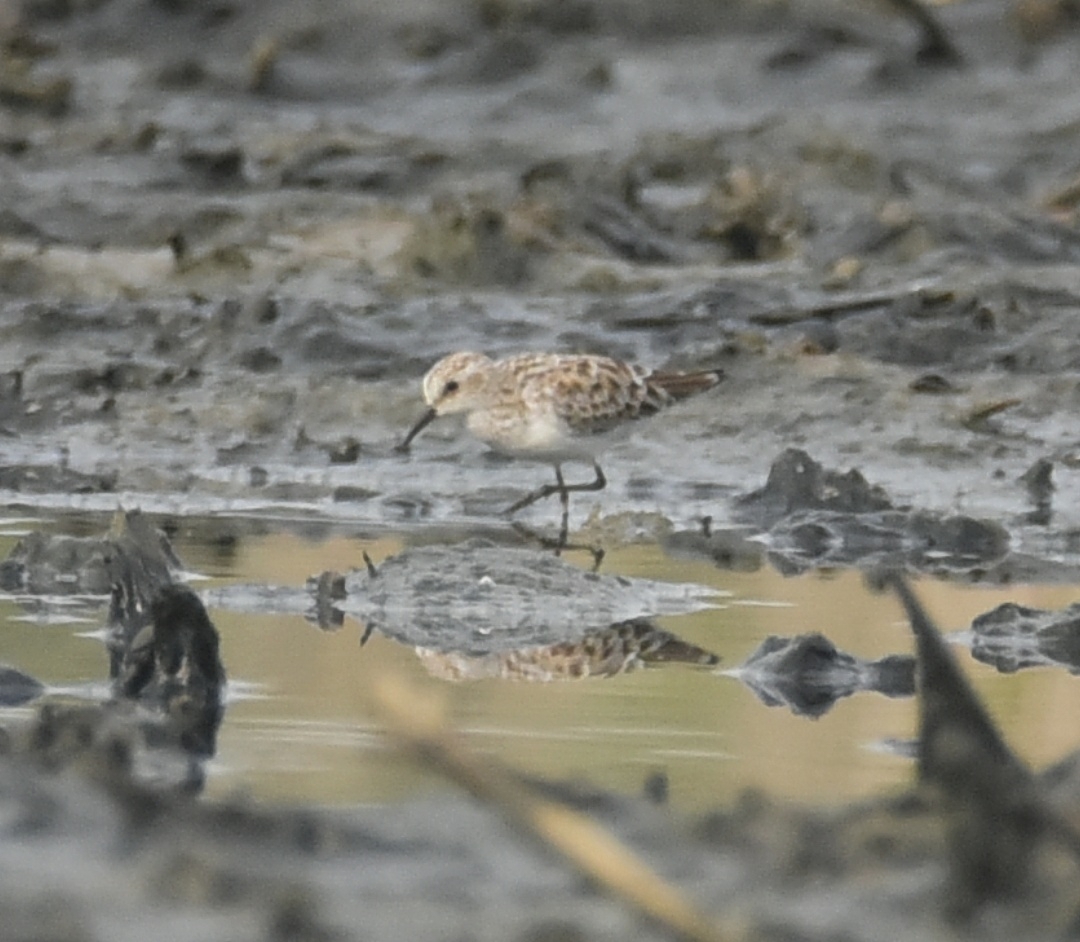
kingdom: Animalia
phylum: Chordata
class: Aves
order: Charadriiformes
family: Scolopacidae
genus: Calidris
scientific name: Calidris minuta
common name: Little stint
